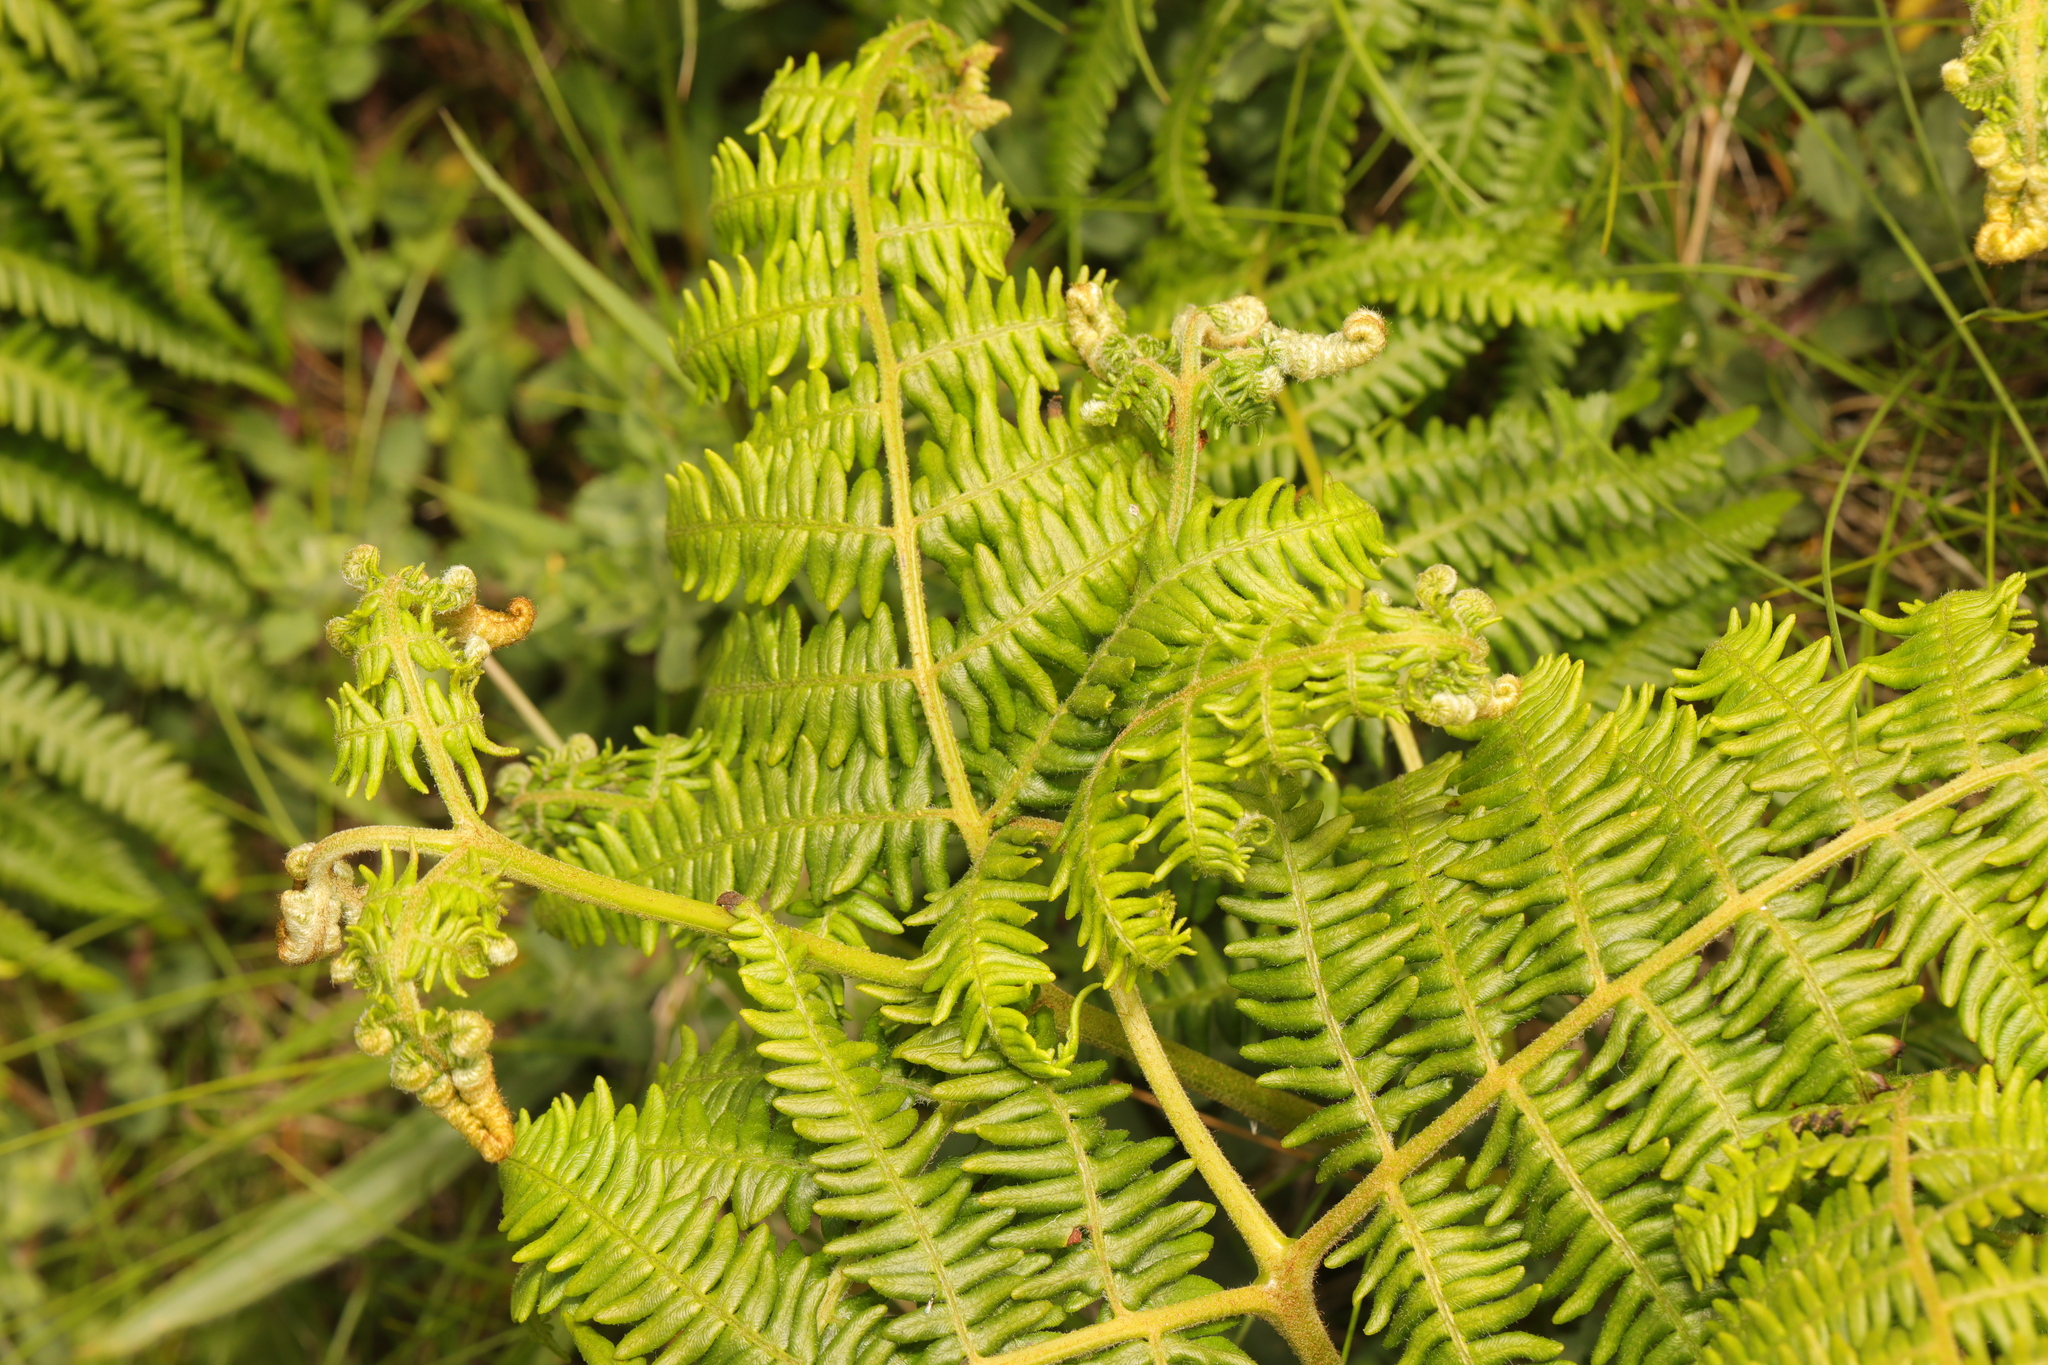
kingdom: Plantae
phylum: Tracheophyta
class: Polypodiopsida
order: Polypodiales
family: Dennstaedtiaceae
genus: Pteridium
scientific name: Pteridium aquilinum
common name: Bracken
